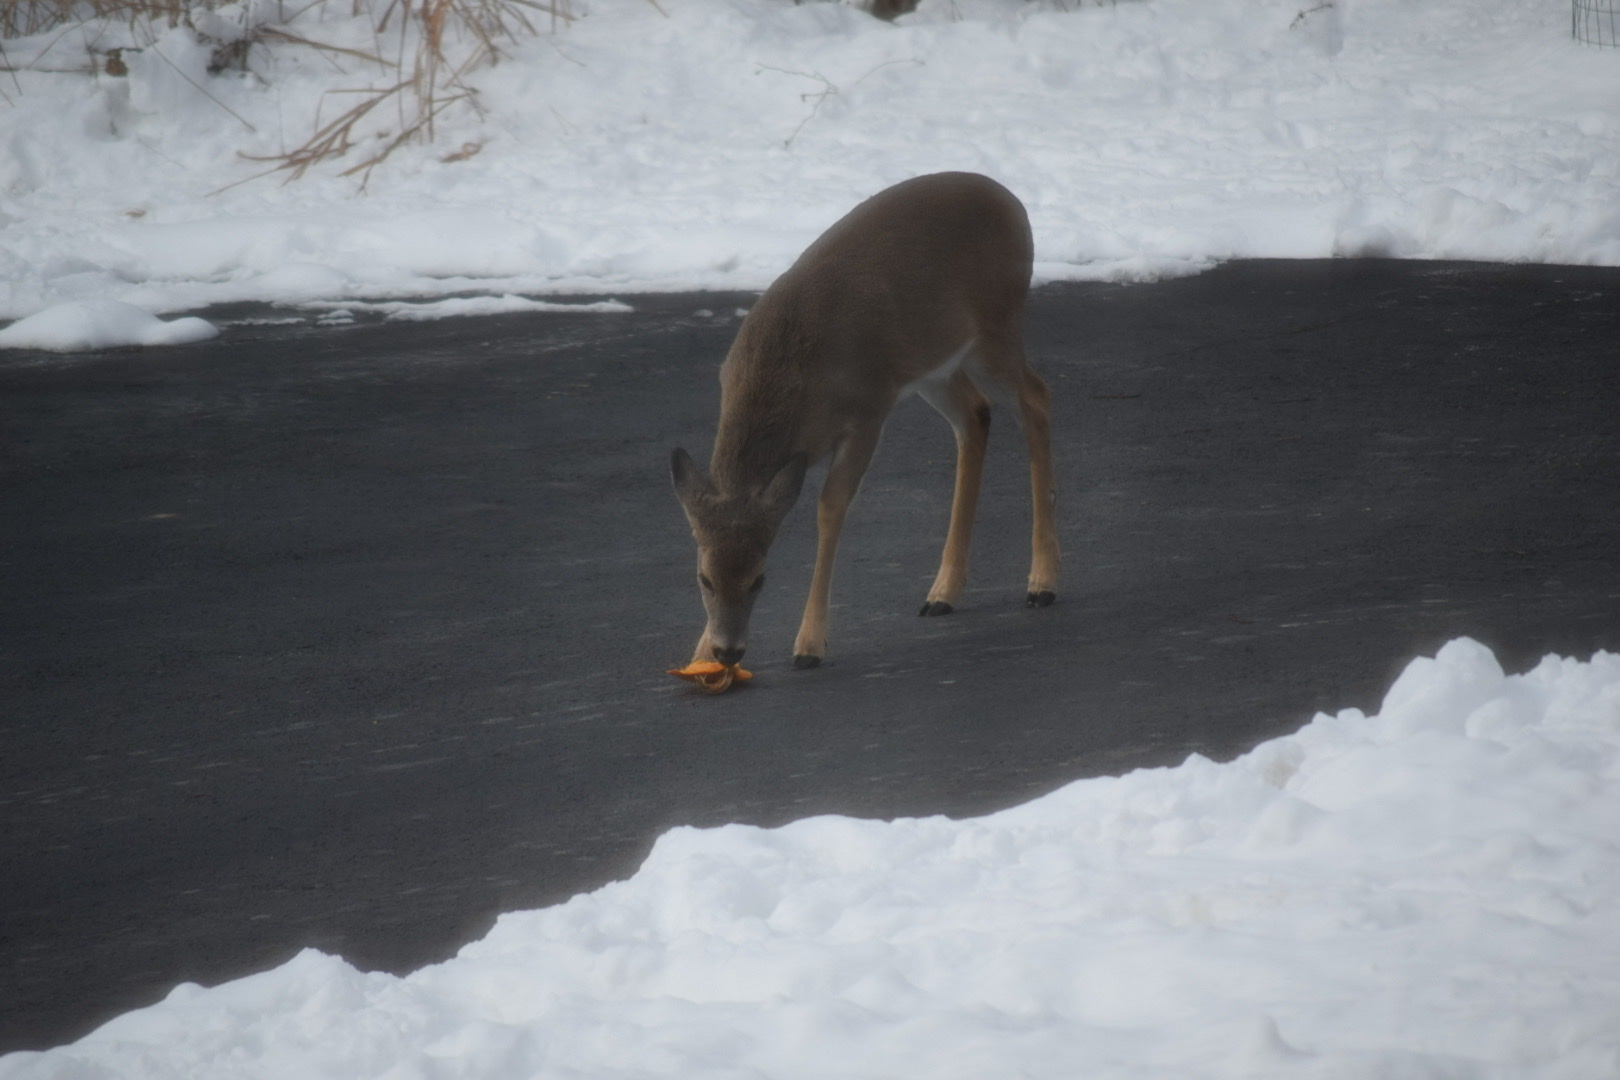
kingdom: Animalia
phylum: Chordata
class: Mammalia
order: Artiodactyla
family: Cervidae
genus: Odocoileus
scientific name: Odocoileus virginianus
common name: White-tailed deer
